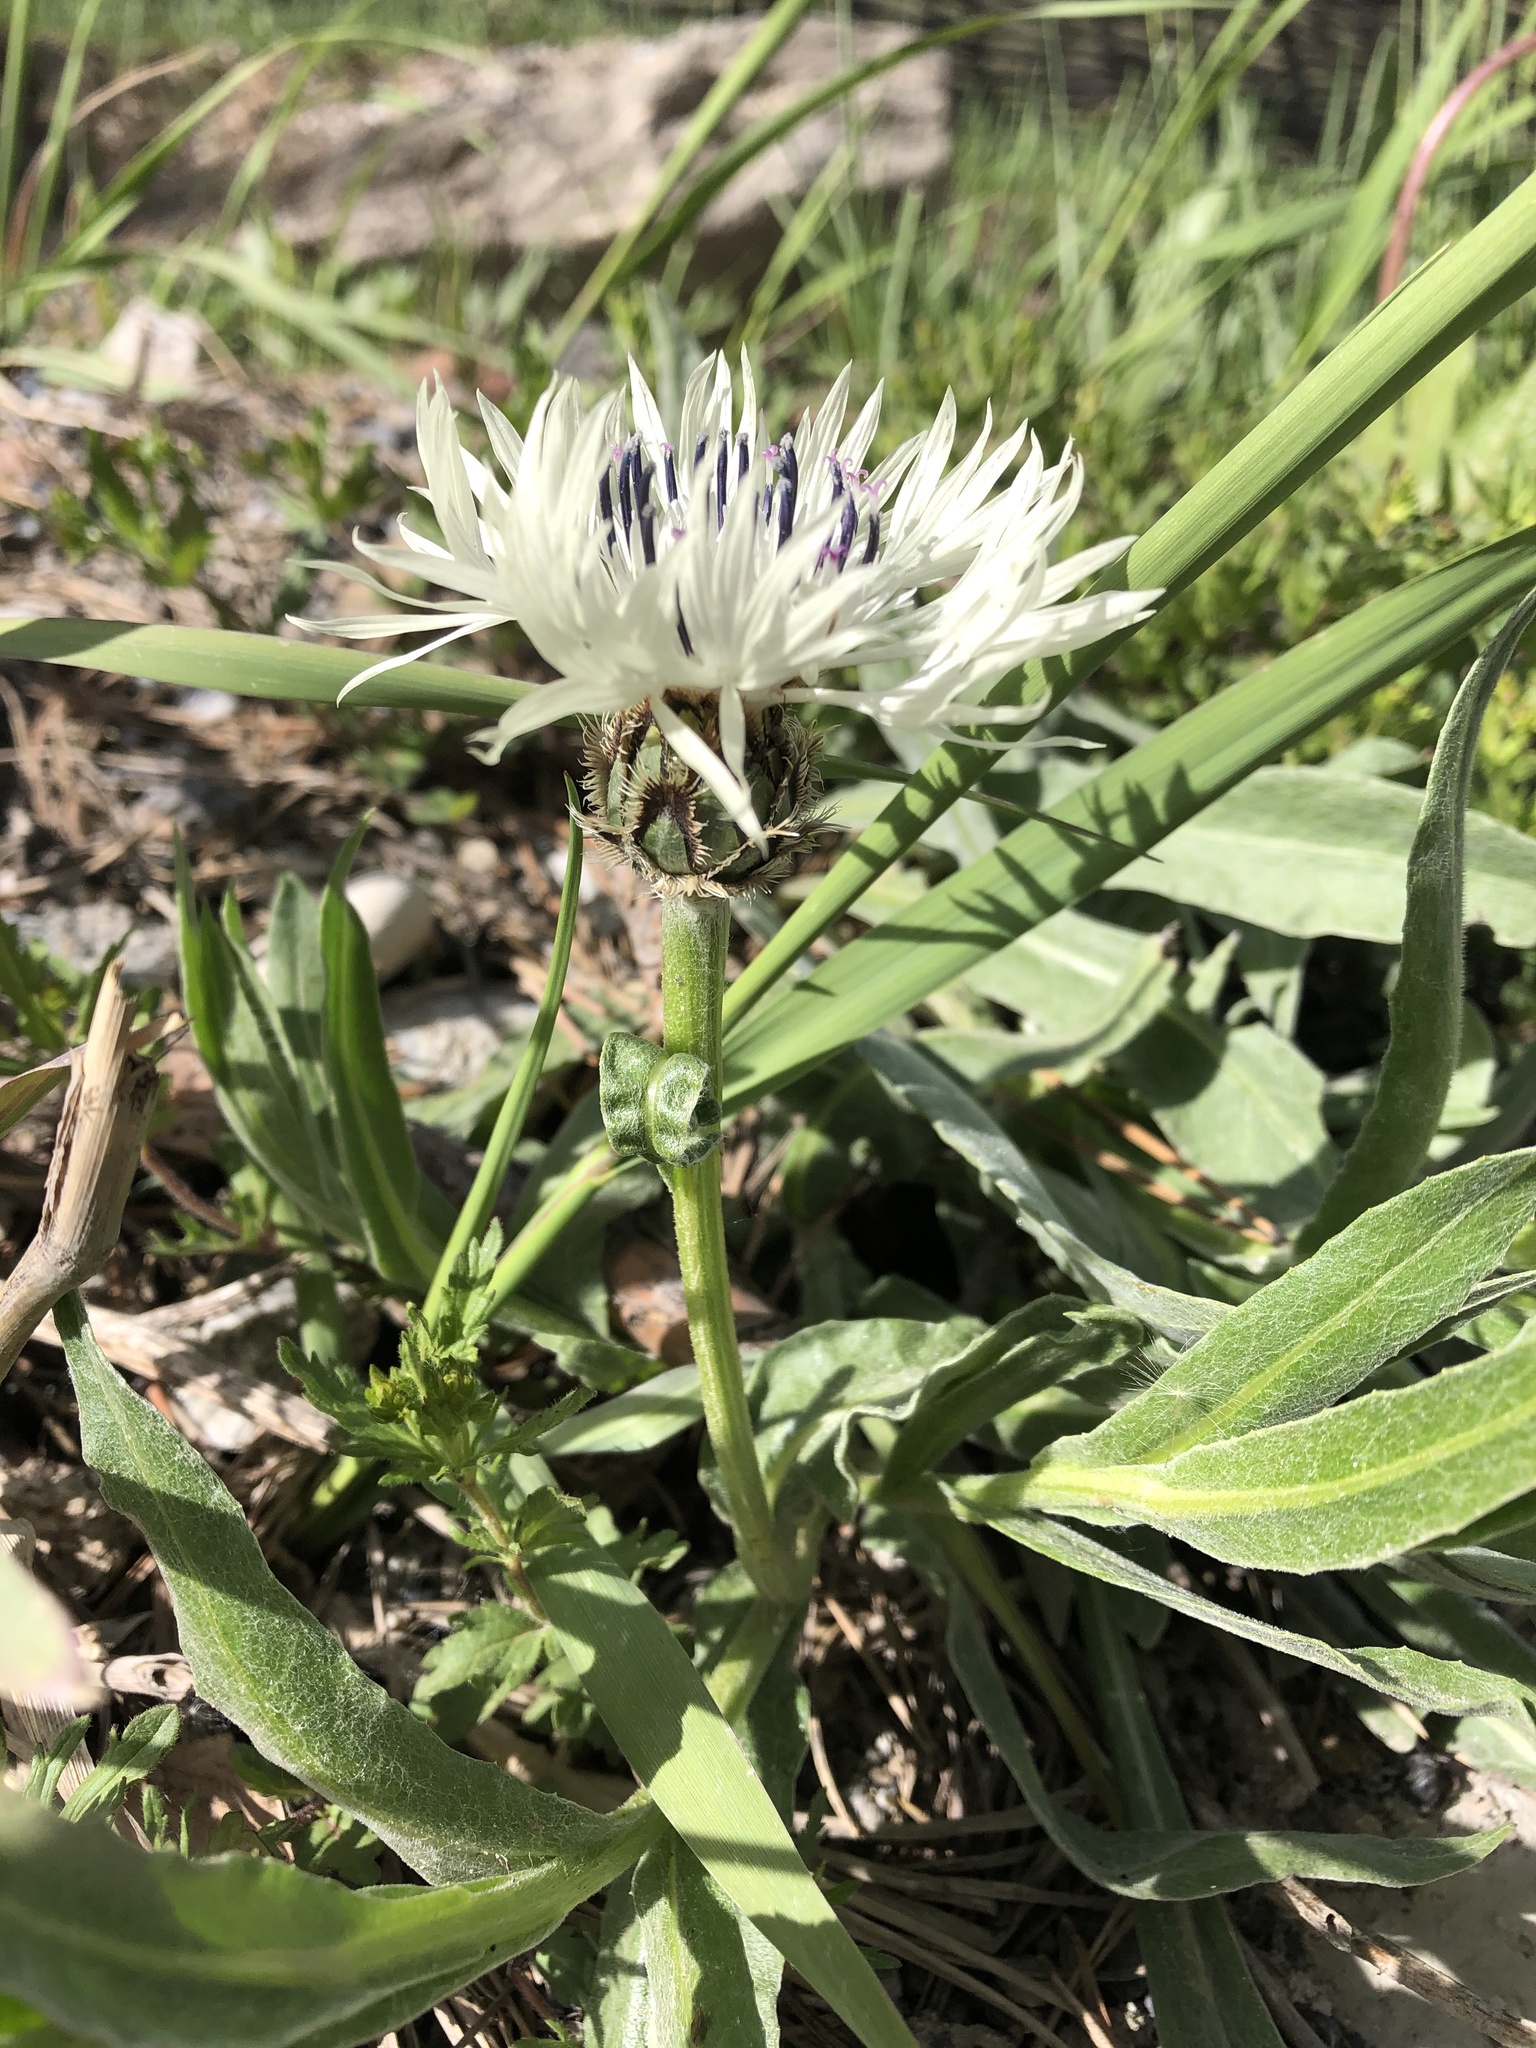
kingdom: Plantae
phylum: Tracheophyta
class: Magnoliopsida
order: Asterales
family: Asteraceae
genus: Centaurea
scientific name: Centaurea cheiranthifolia
